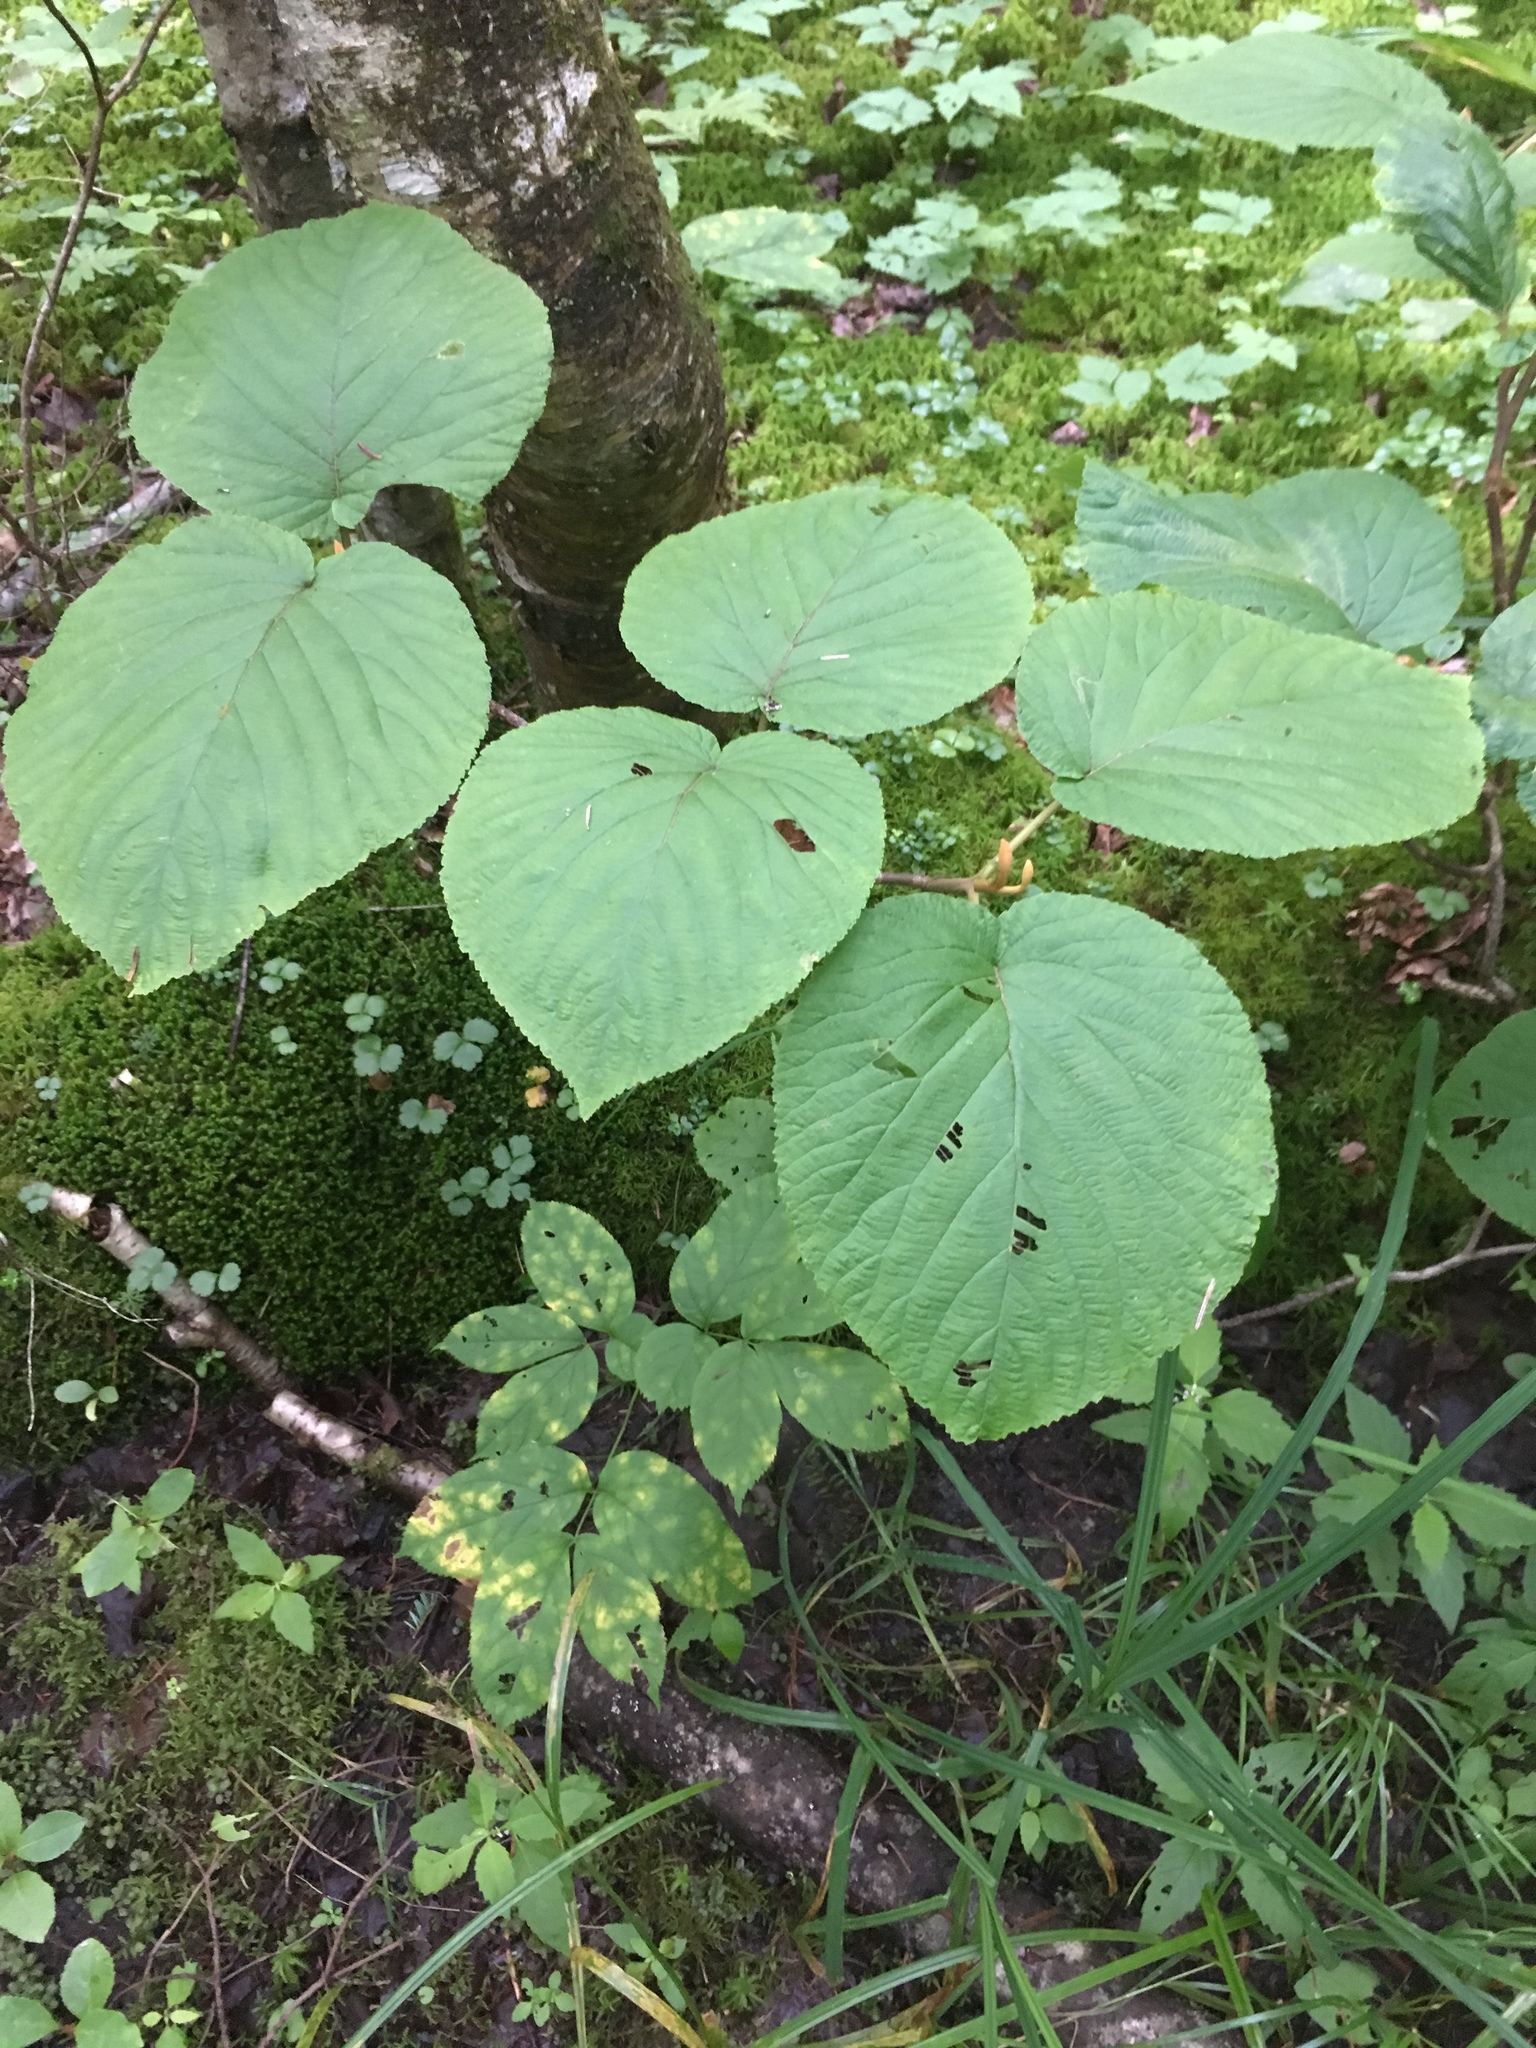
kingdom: Plantae
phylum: Tracheophyta
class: Magnoliopsida
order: Dipsacales
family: Viburnaceae
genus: Viburnum
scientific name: Viburnum lantanoides
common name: Hobblebush
